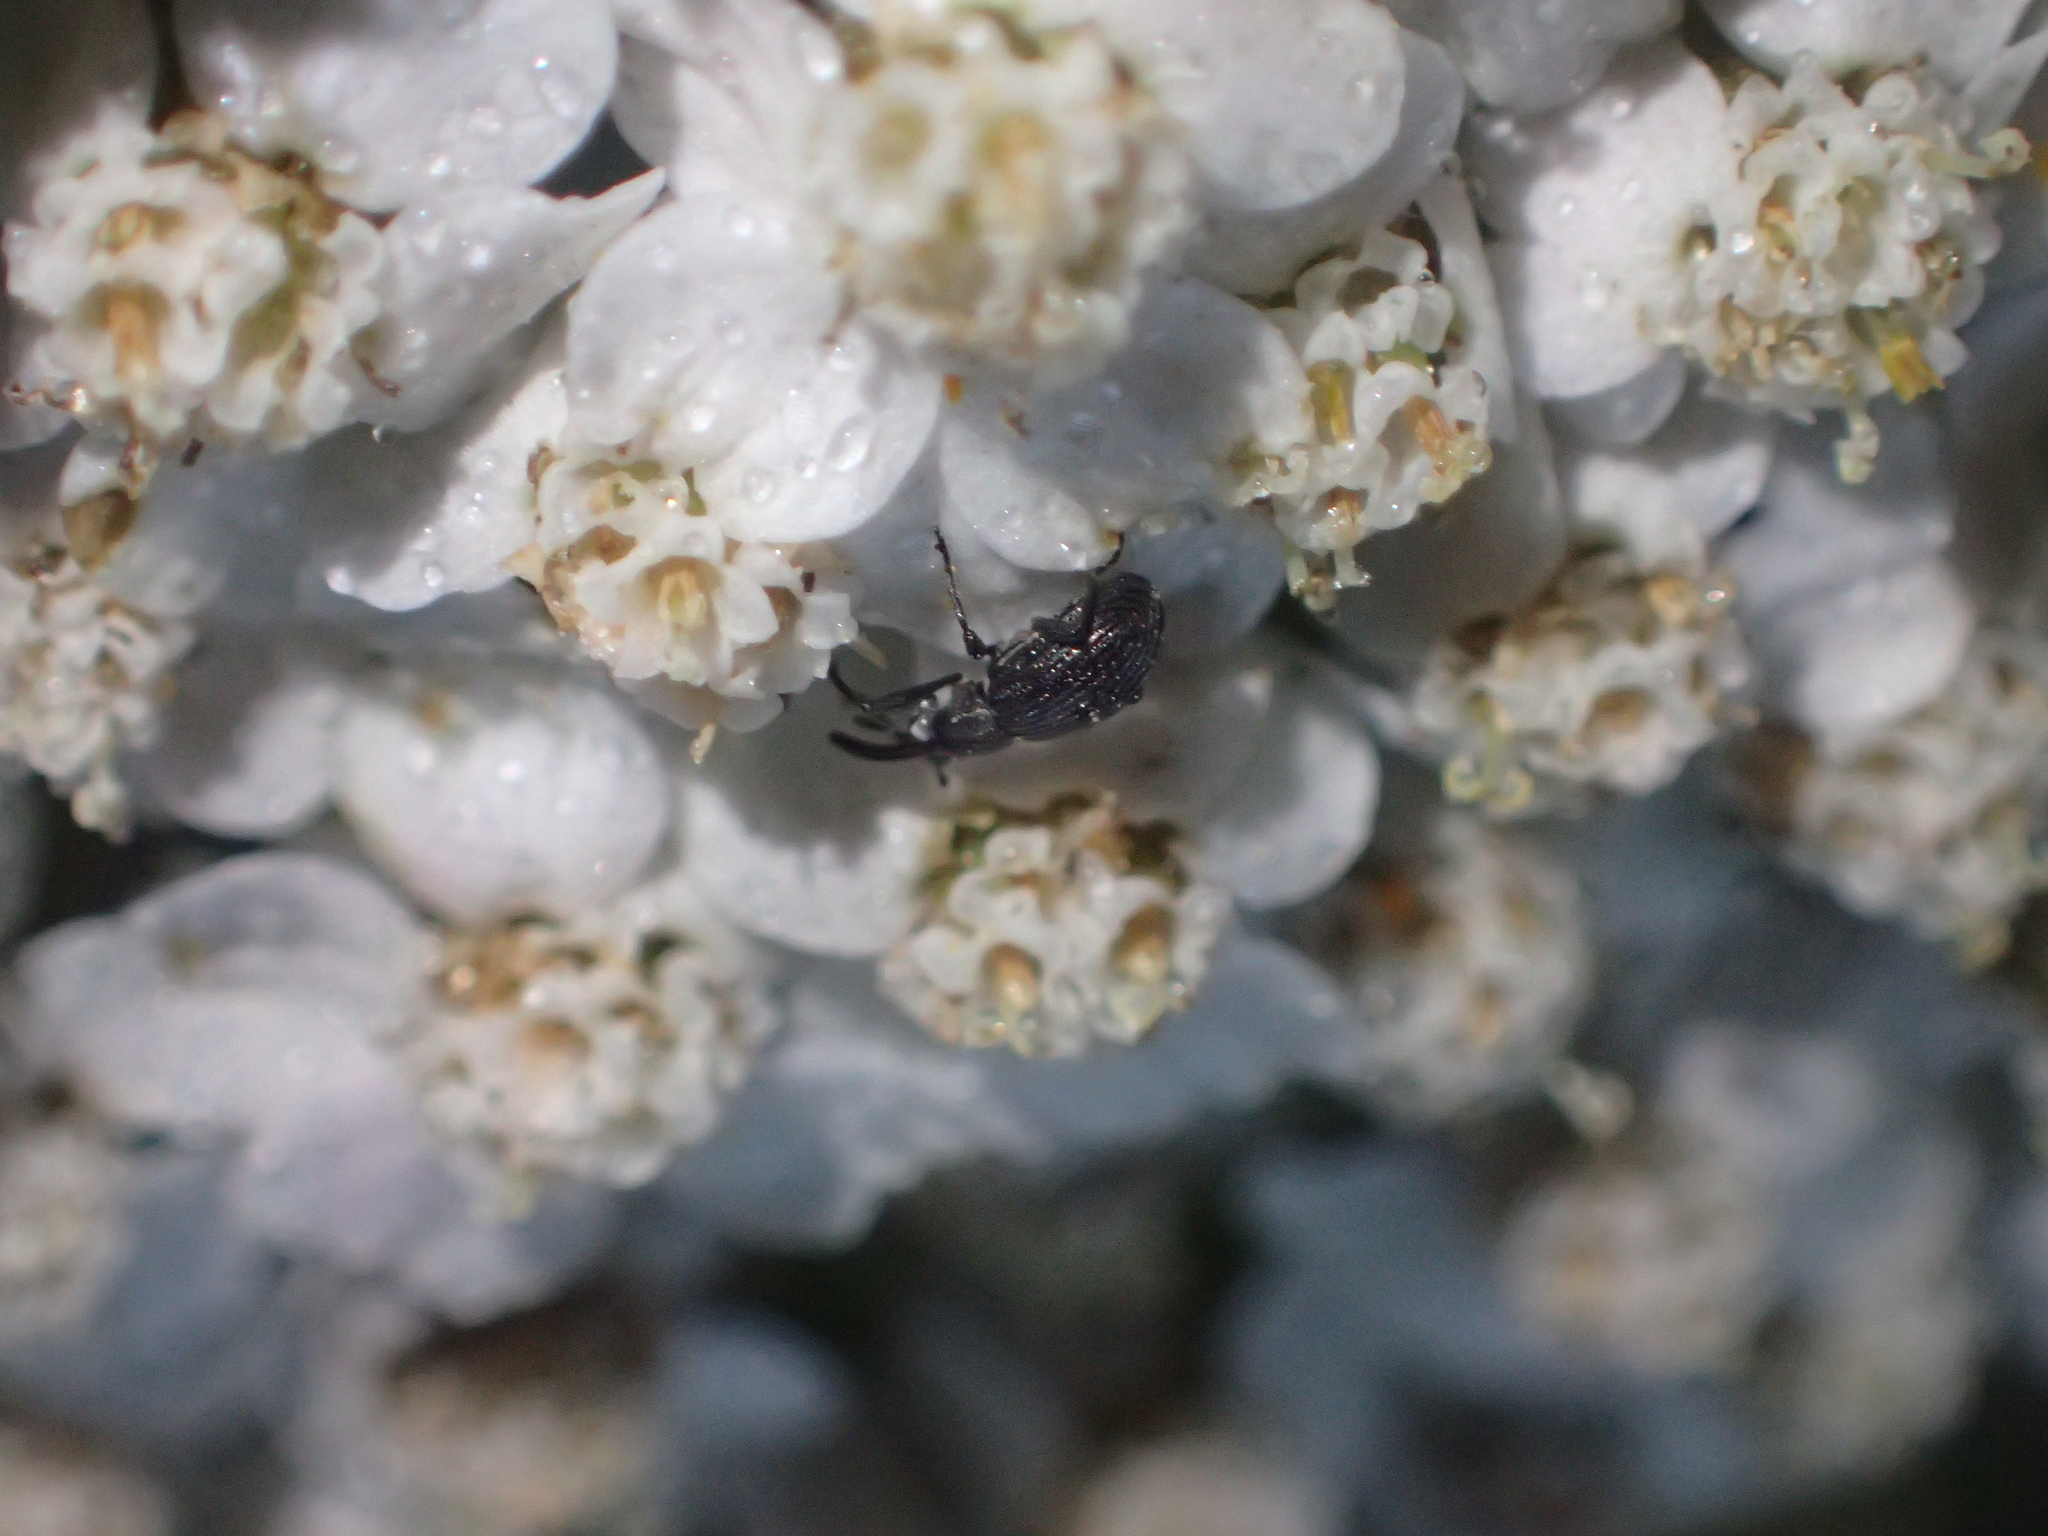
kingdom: Animalia
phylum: Arthropoda
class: Insecta
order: Coleoptera
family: Curculionidae
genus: Anthonomus
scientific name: Anthonomus rubi
